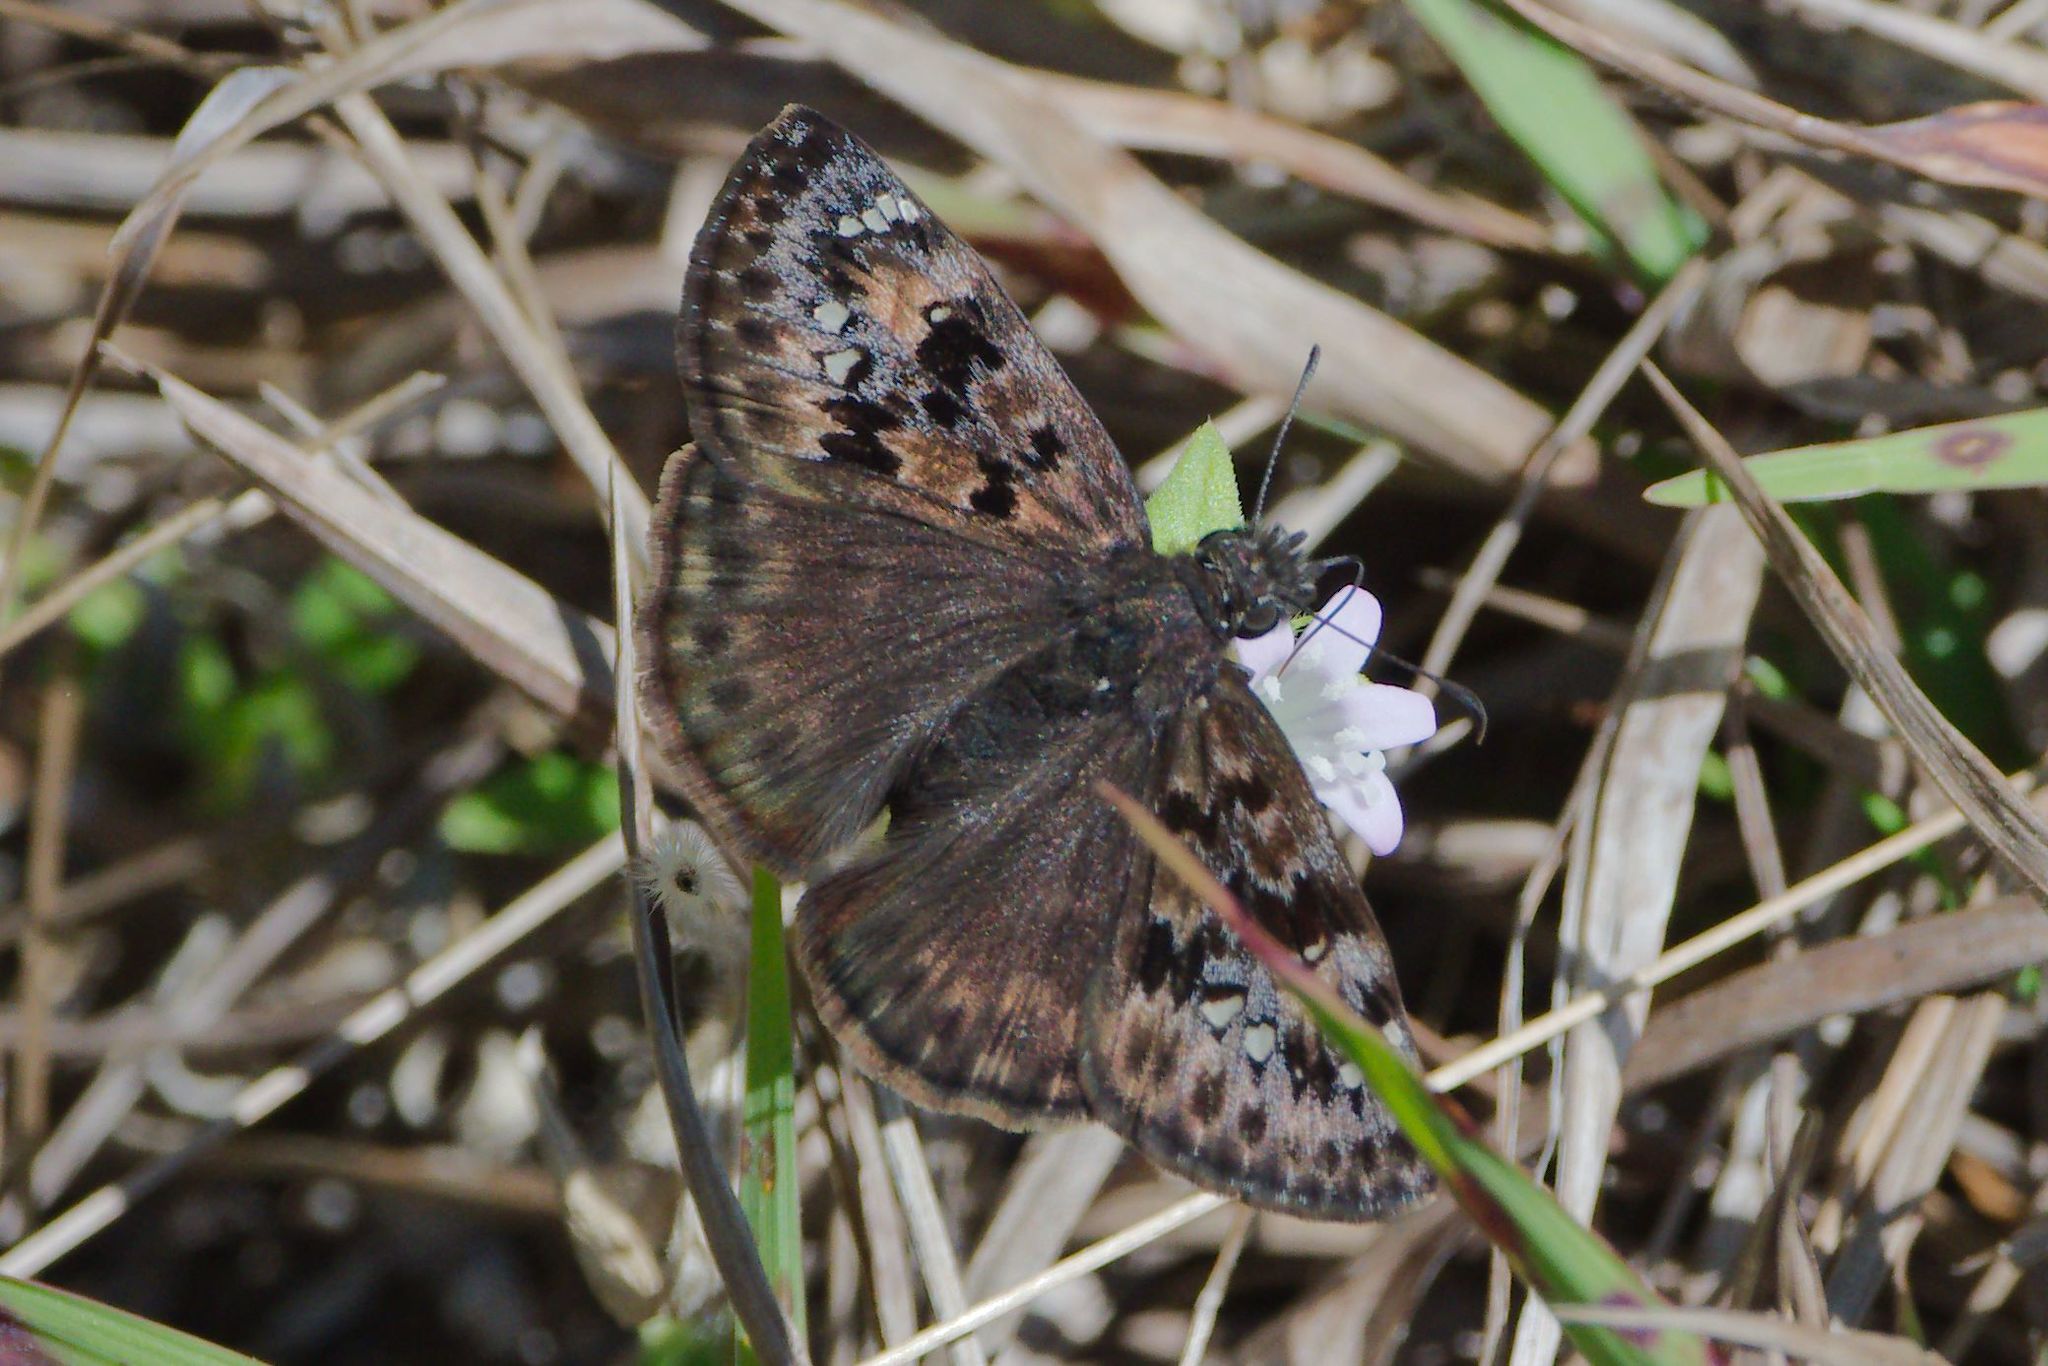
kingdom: Animalia
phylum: Arthropoda
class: Insecta
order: Lepidoptera
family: Hesperiidae
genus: Erynnis
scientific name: Erynnis juvenalis
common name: Juvenal's duskywing
